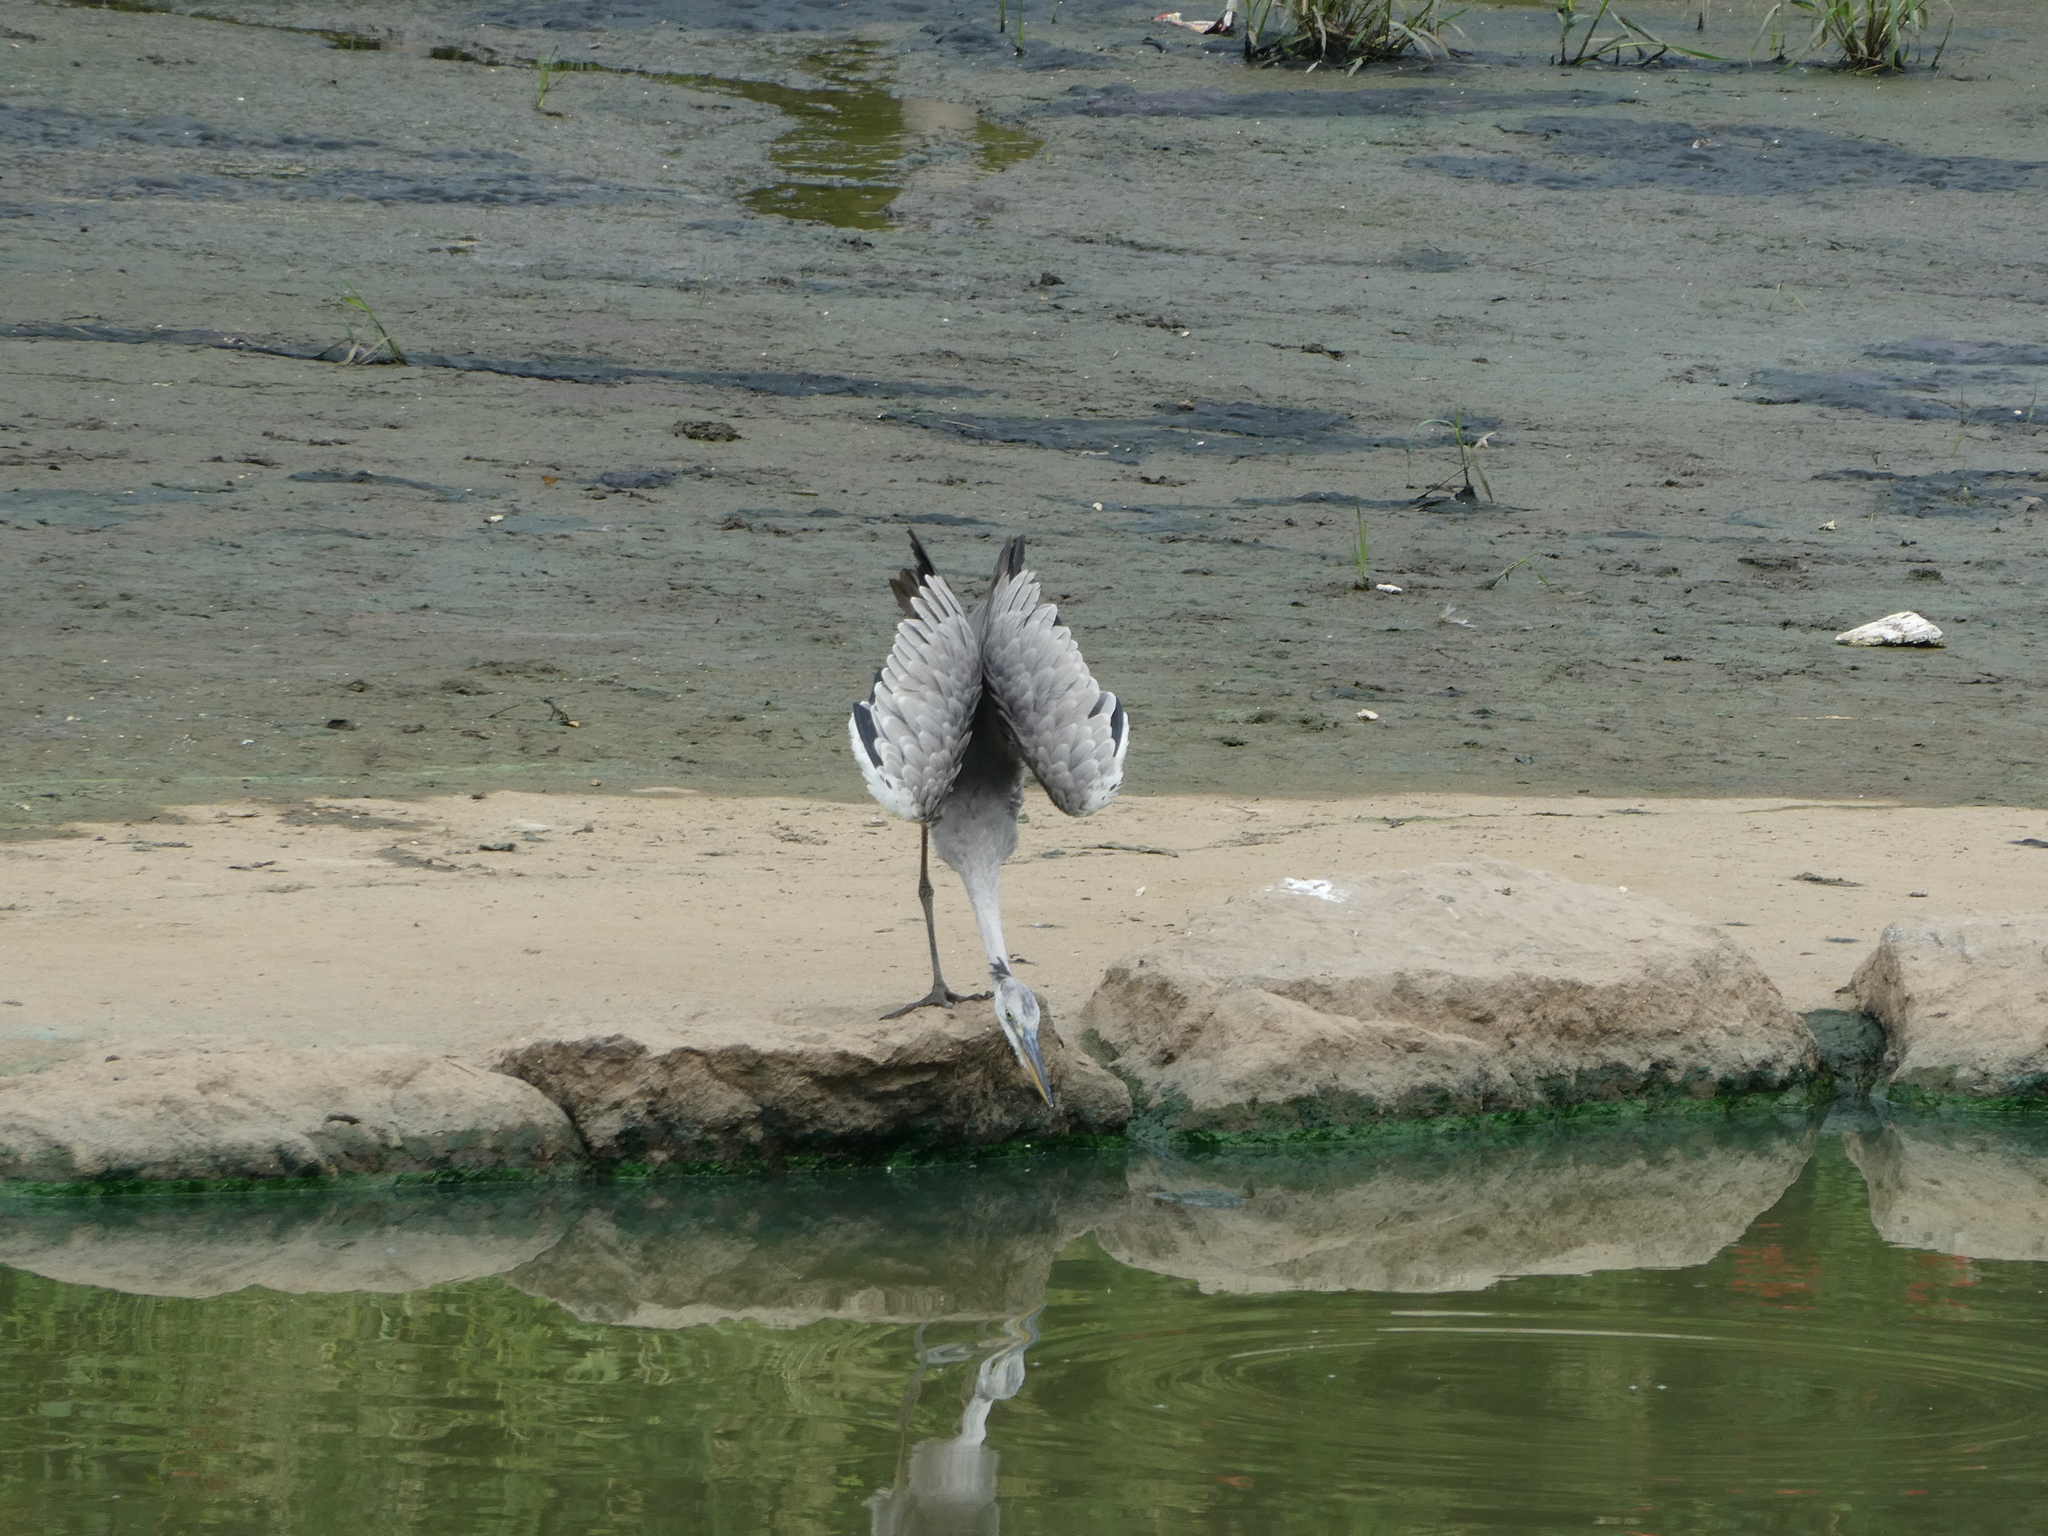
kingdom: Animalia
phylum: Chordata
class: Aves
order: Pelecaniformes
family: Ardeidae
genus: Ardea
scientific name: Ardea cinerea
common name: Grey heron
